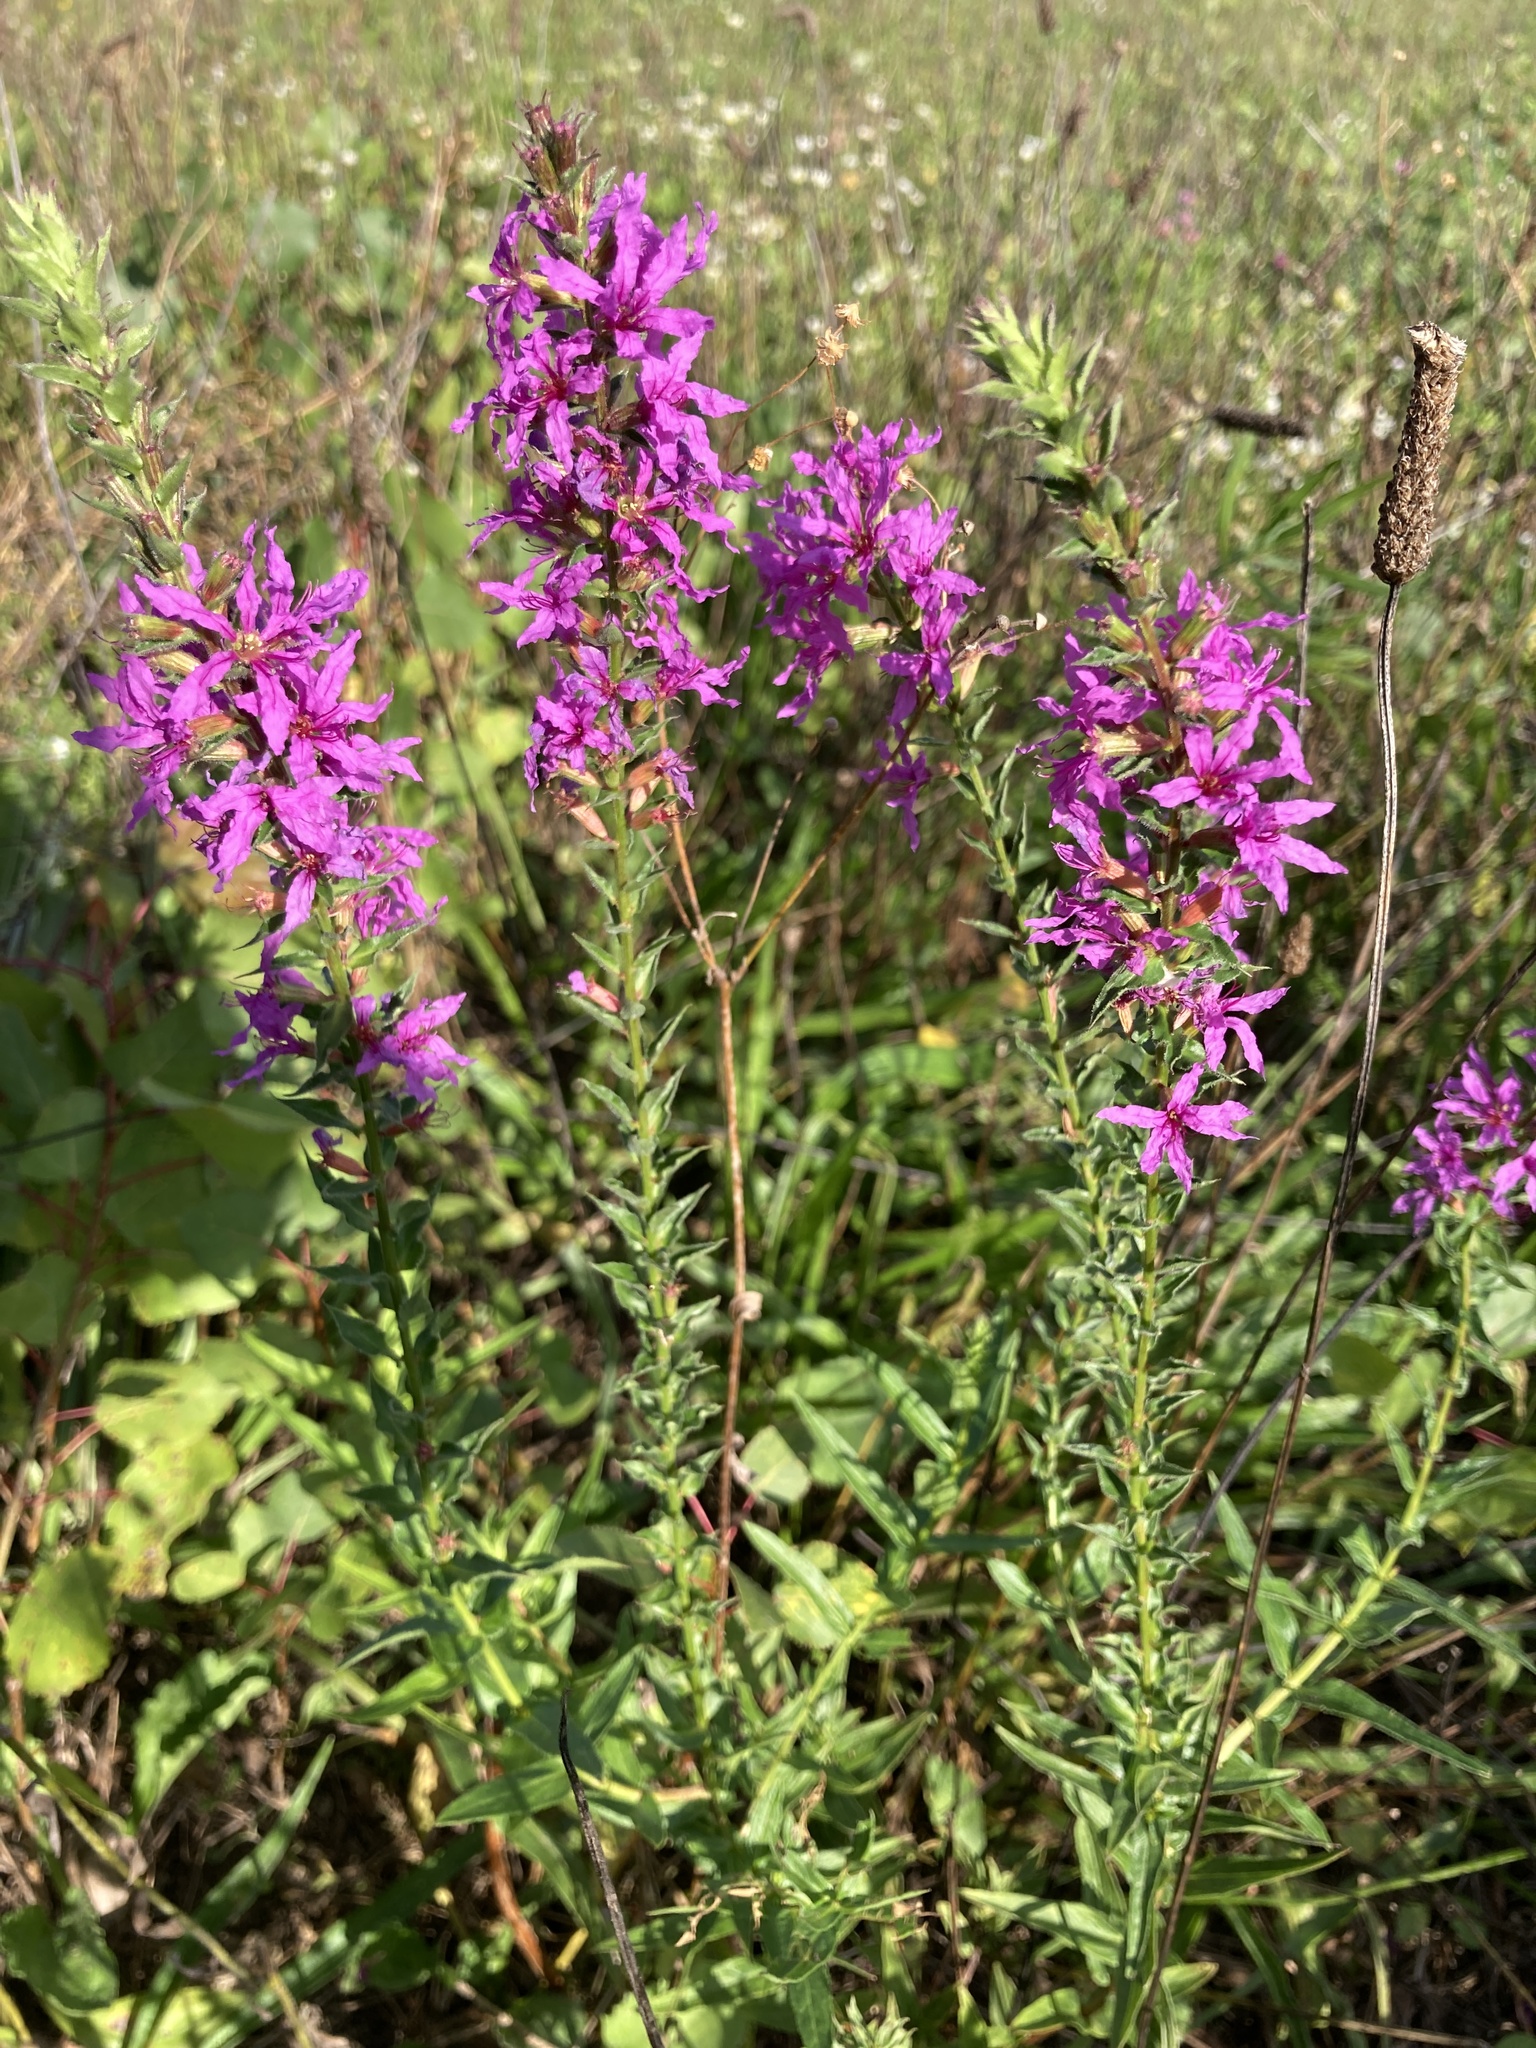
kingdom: Plantae
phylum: Tracheophyta
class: Magnoliopsida
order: Myrtales
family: Lythraceae
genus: Lythrum
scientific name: Lythrum salicaria
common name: Purple loosestrife
